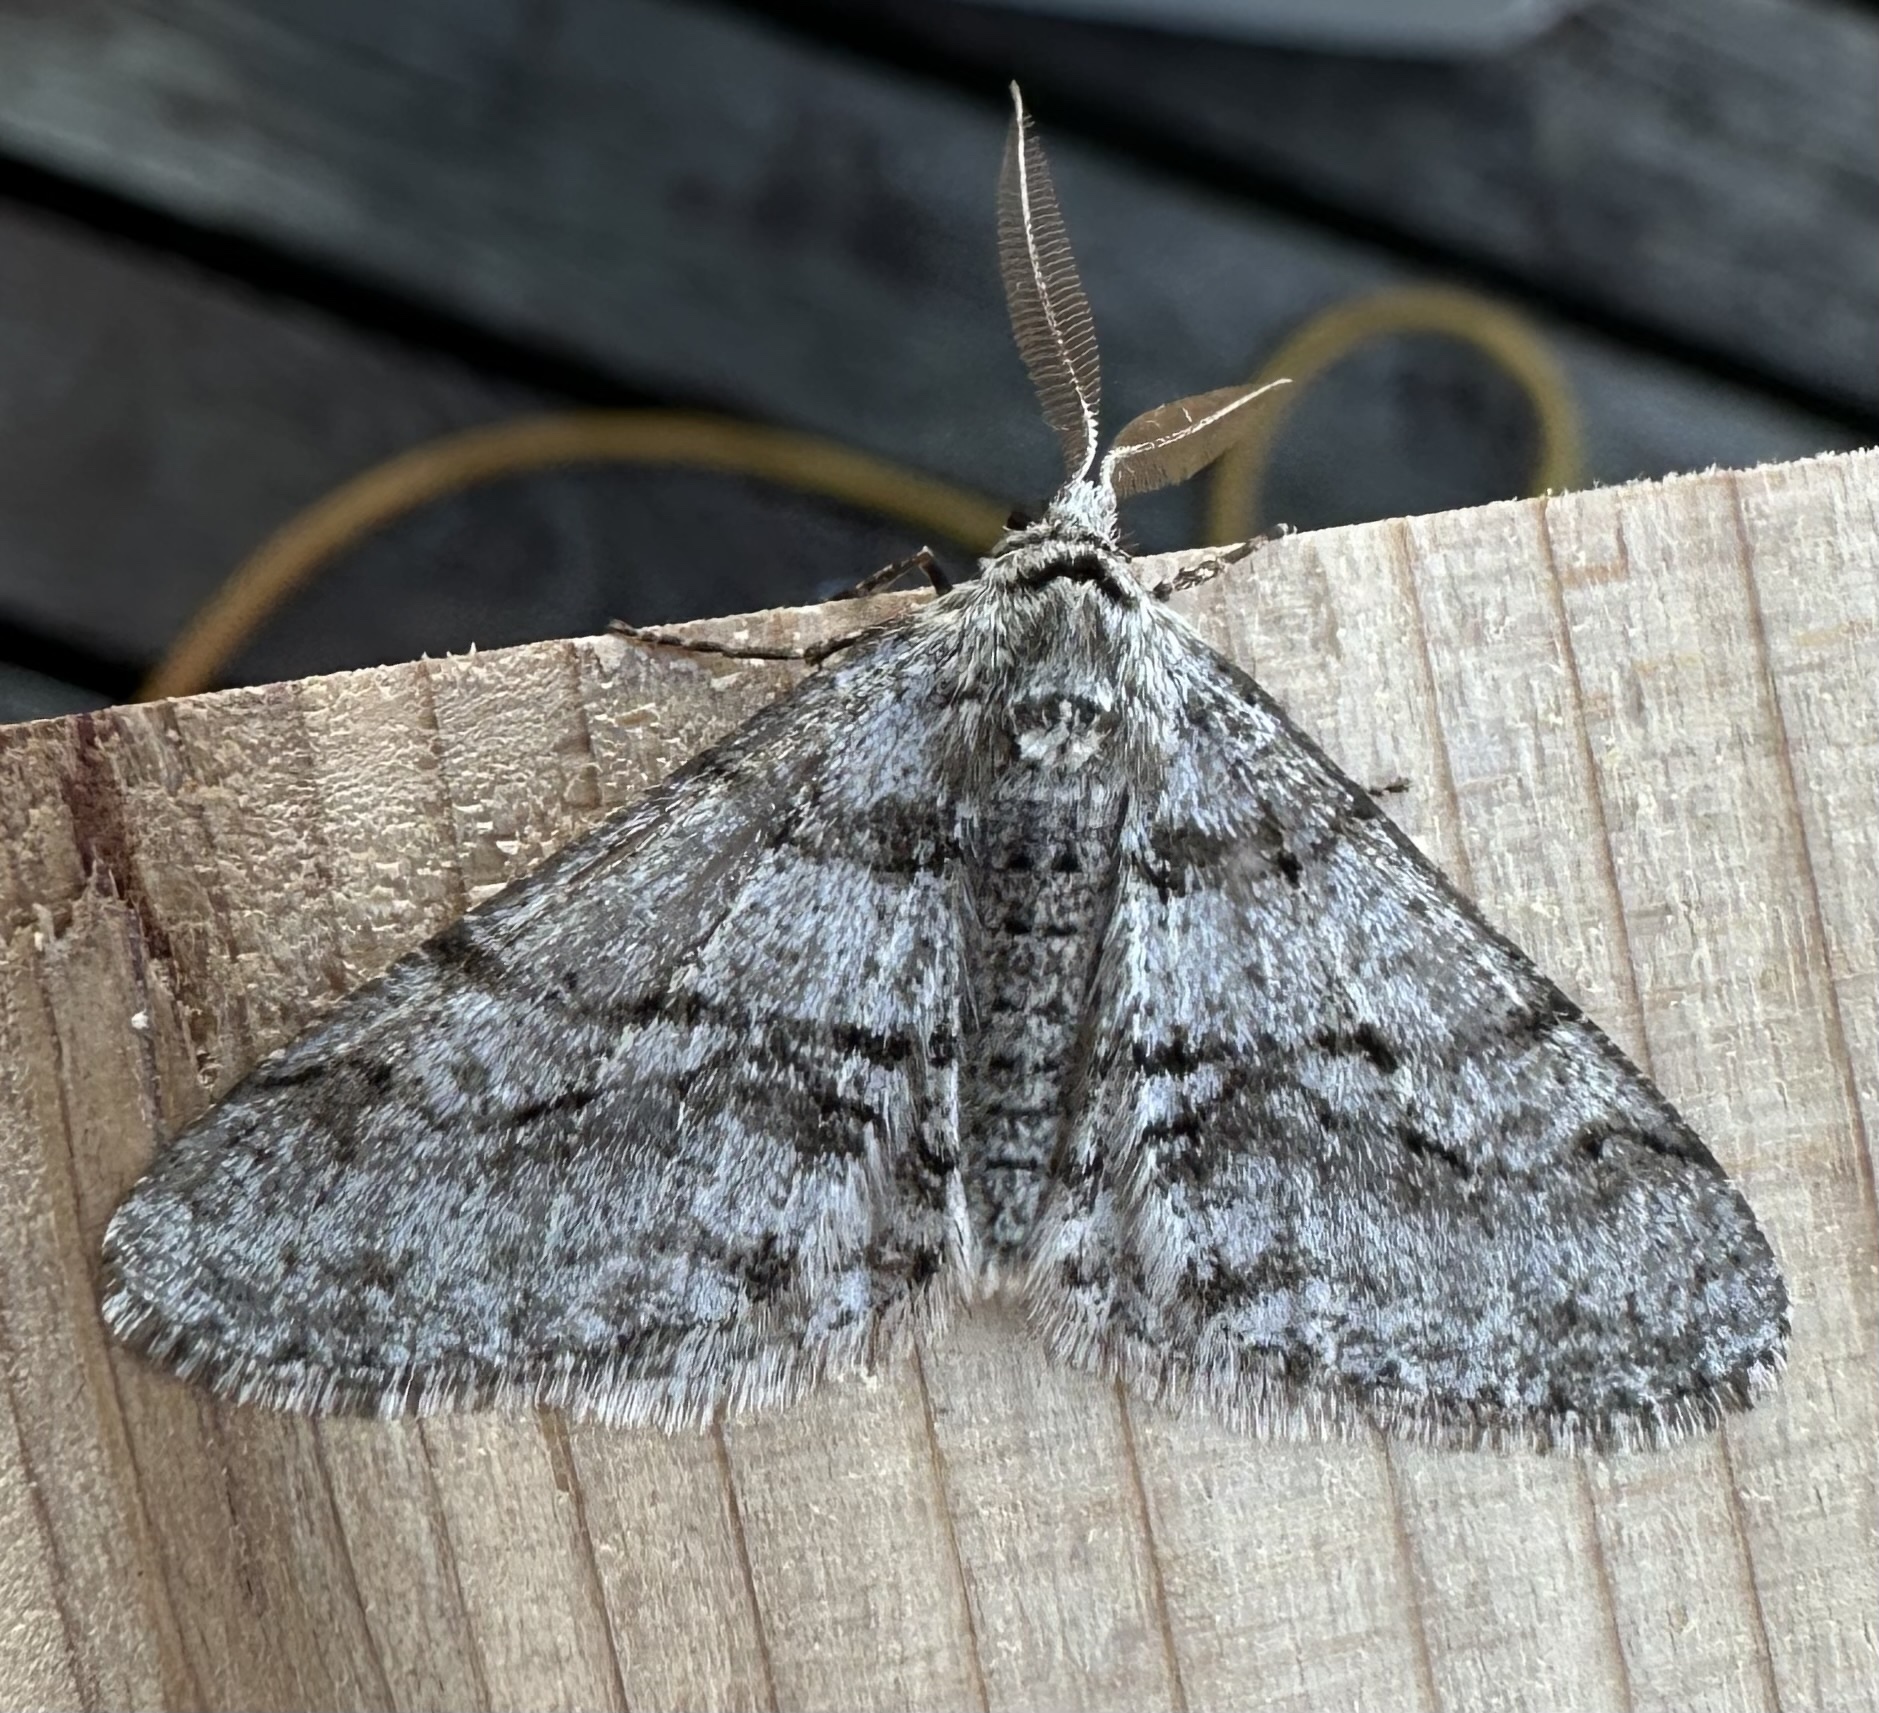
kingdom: Animalia
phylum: Arthropoda
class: Insecta
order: Lepidoptera
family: Geometridae
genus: Phigalia
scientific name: Phigalia titea
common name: Spiny looper
